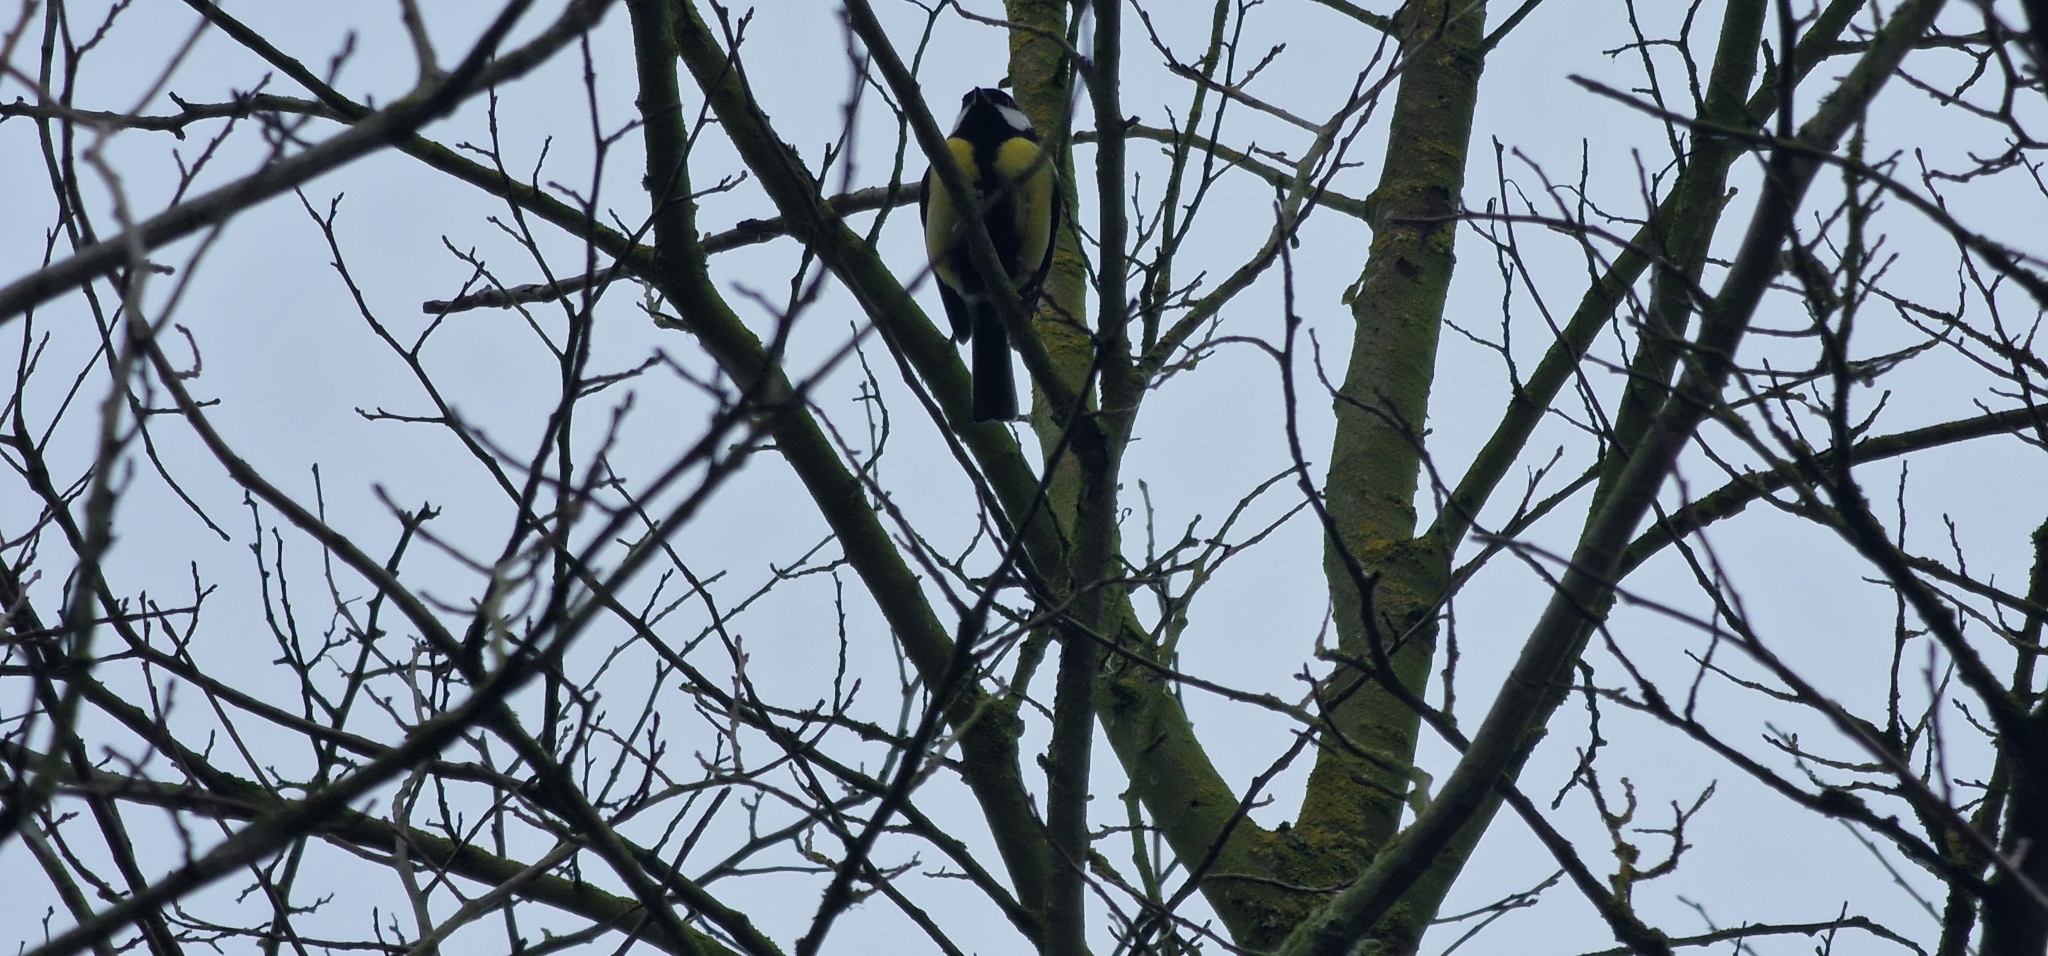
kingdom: Animalia
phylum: Chordata
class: Aves
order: Passeriformes
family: Paridae
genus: Parus
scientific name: Parus major
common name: Great tit
